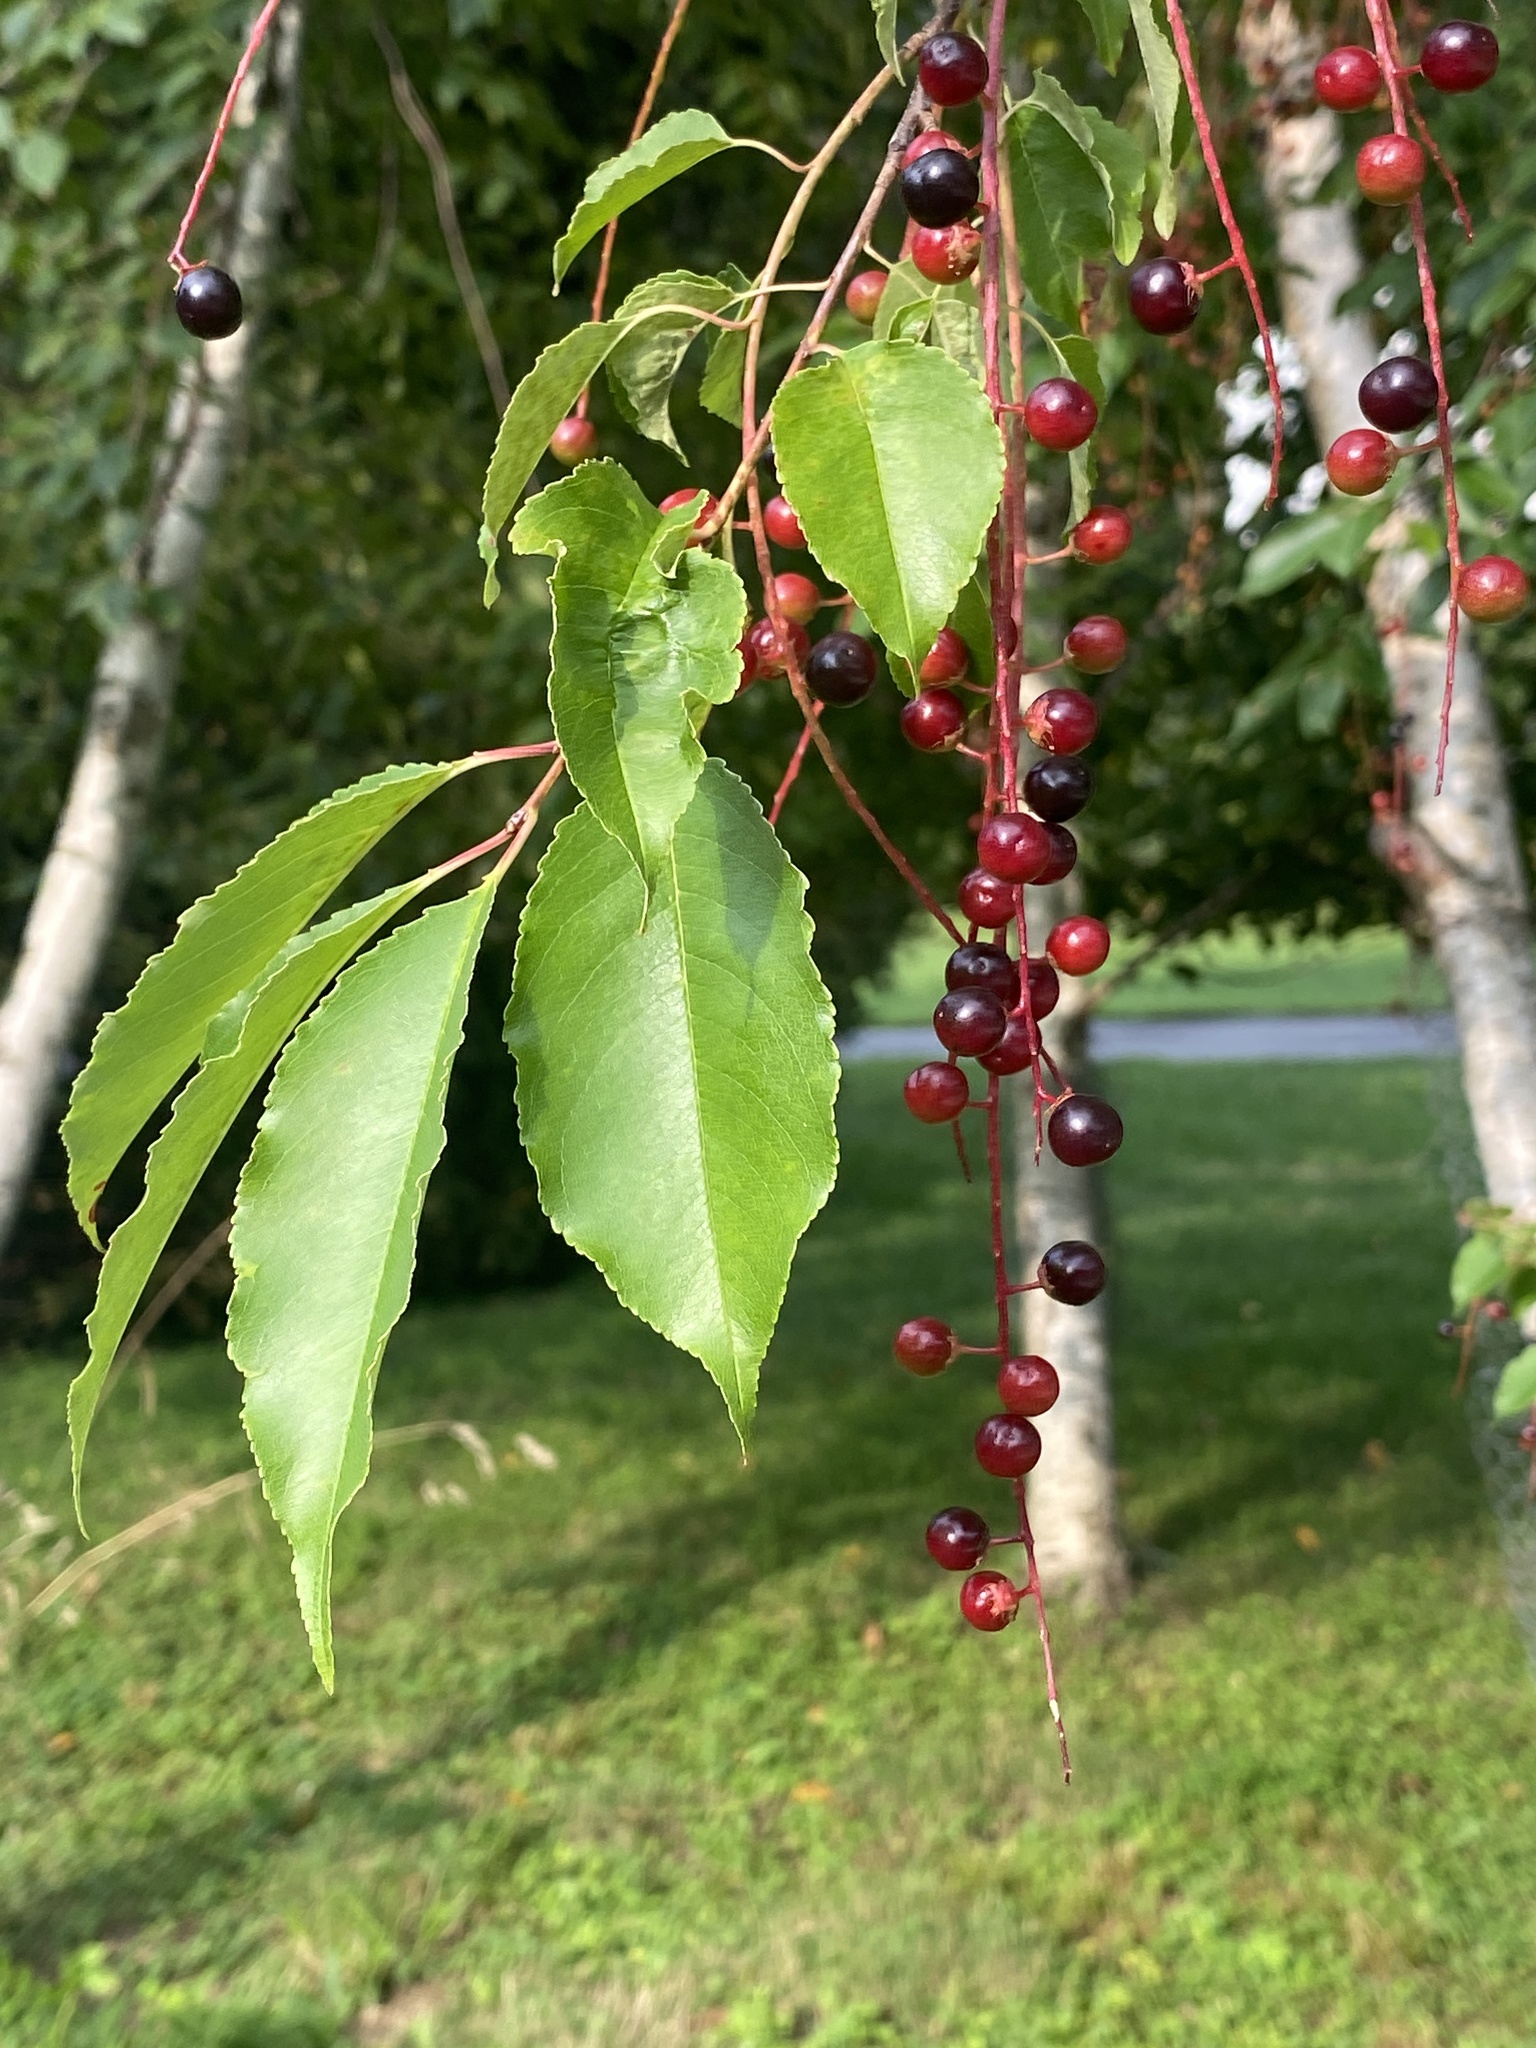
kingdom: Plantae
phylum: Tracheophyta
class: Magnoliopsida
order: Rosales
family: Rosaceae
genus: Prunus
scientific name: Prunus serotina
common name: Black cherry
